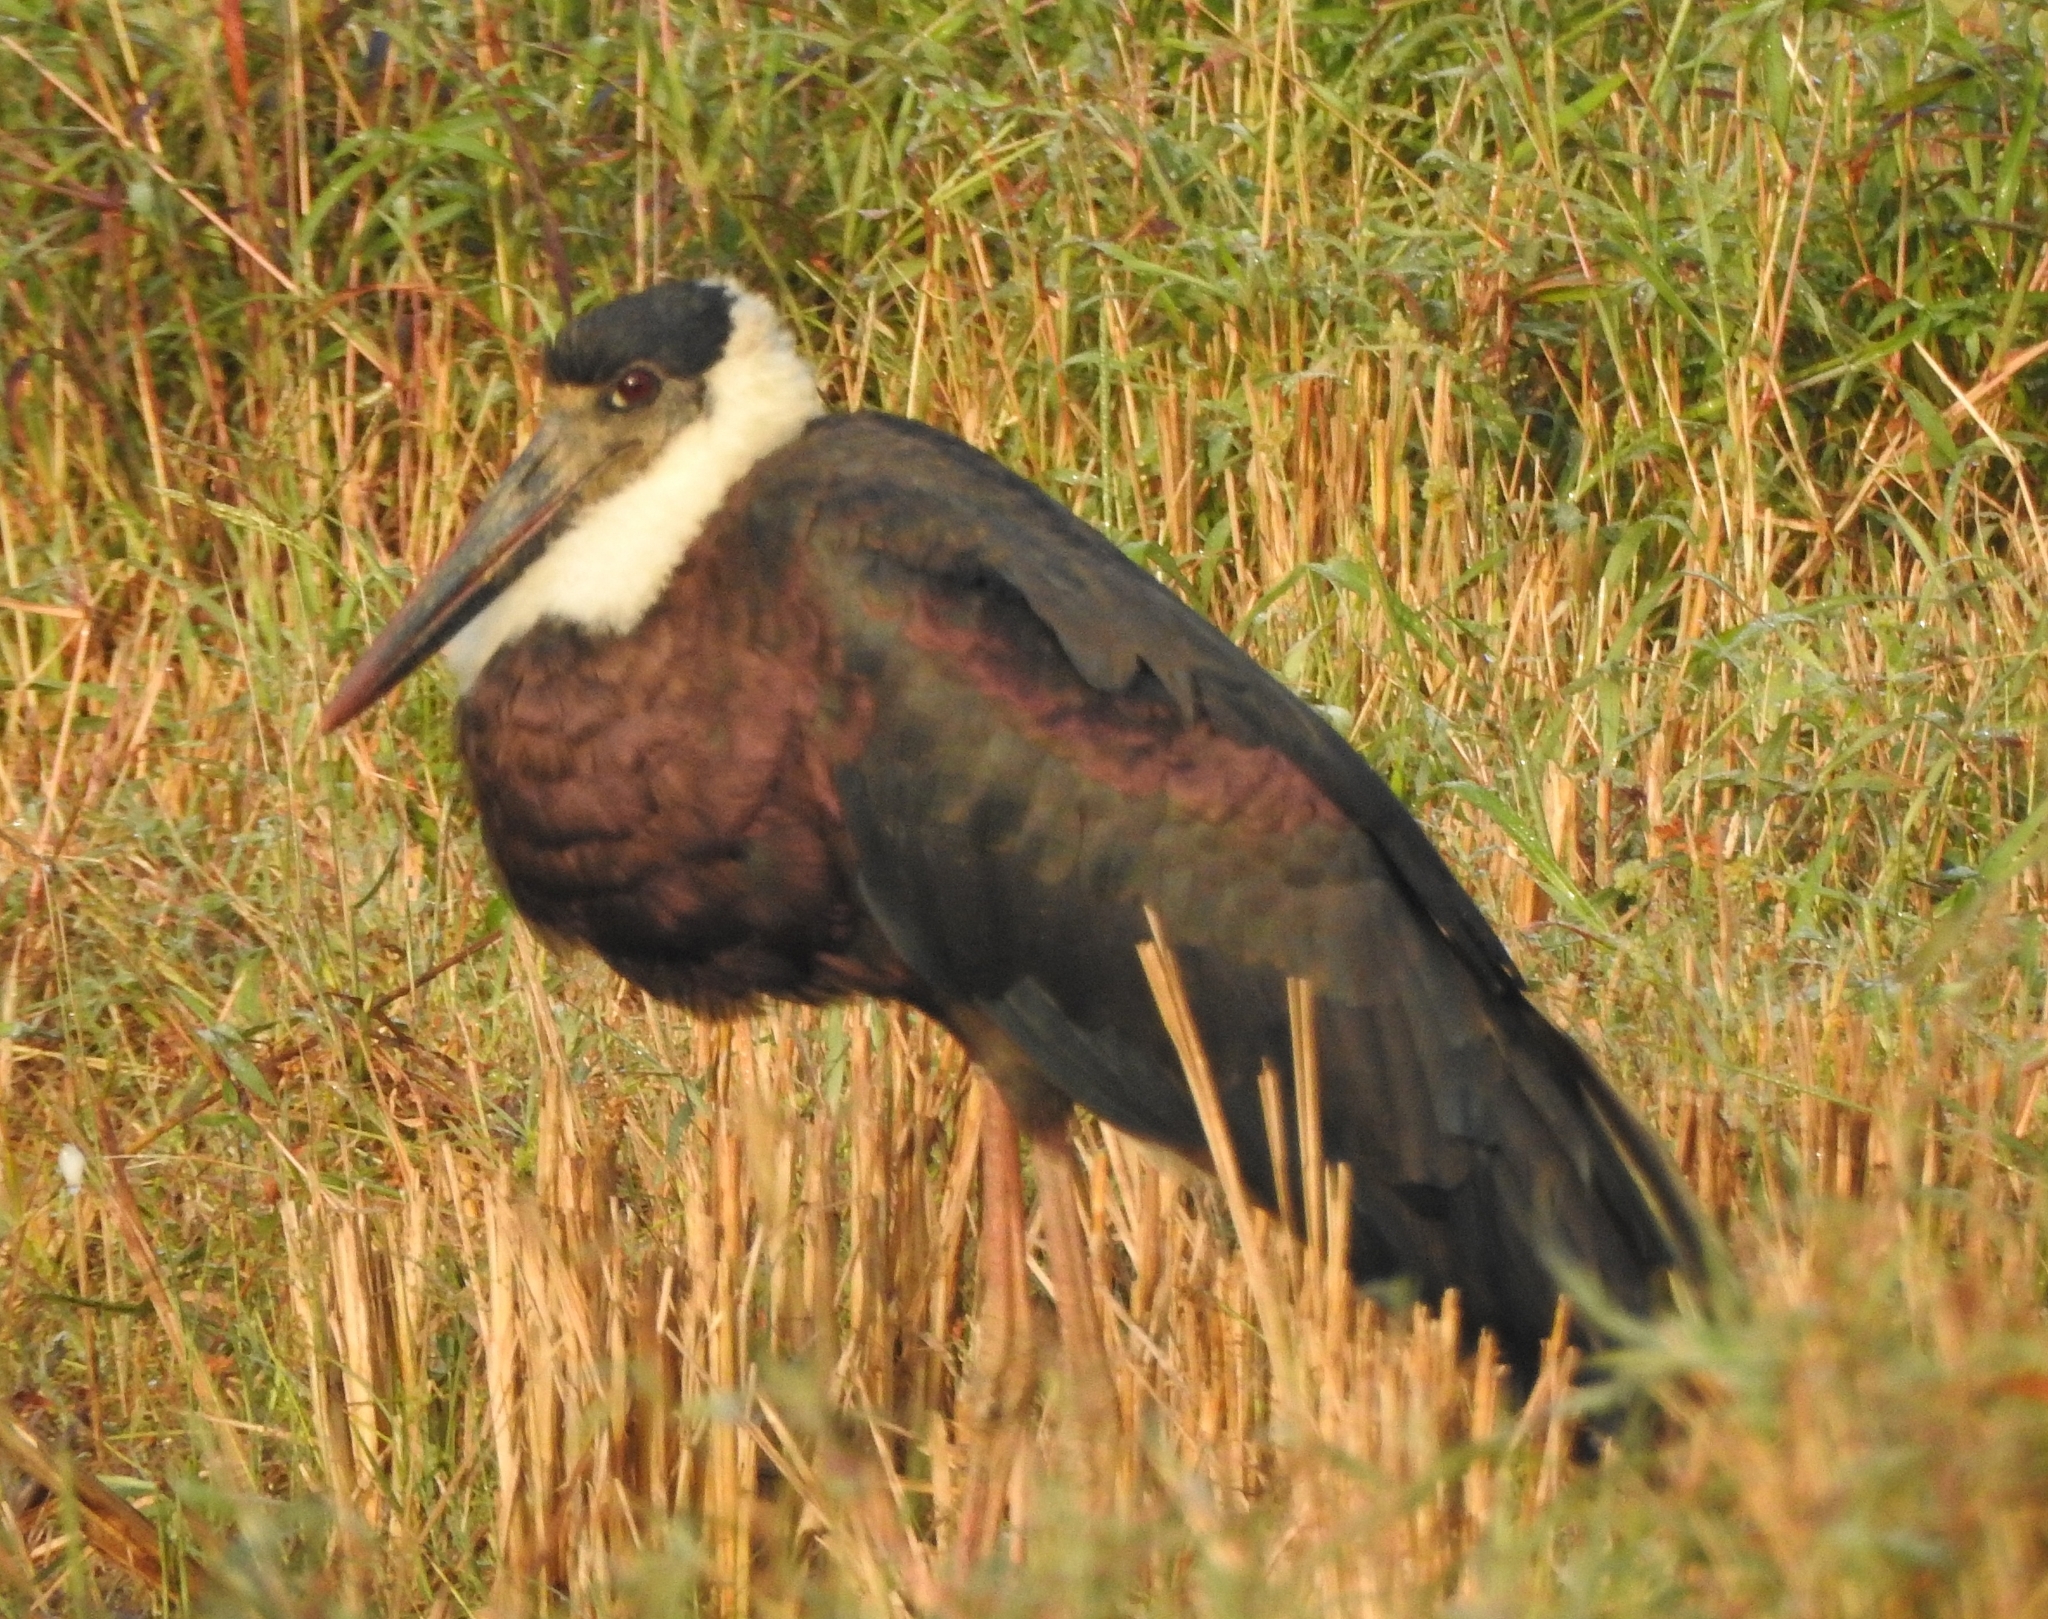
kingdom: Animalia
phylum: Chordata
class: Aves
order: Ciconiiformes
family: Ciconiidae
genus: Ciconia
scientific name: Ciconia episcopus
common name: Woolly-necked stork
